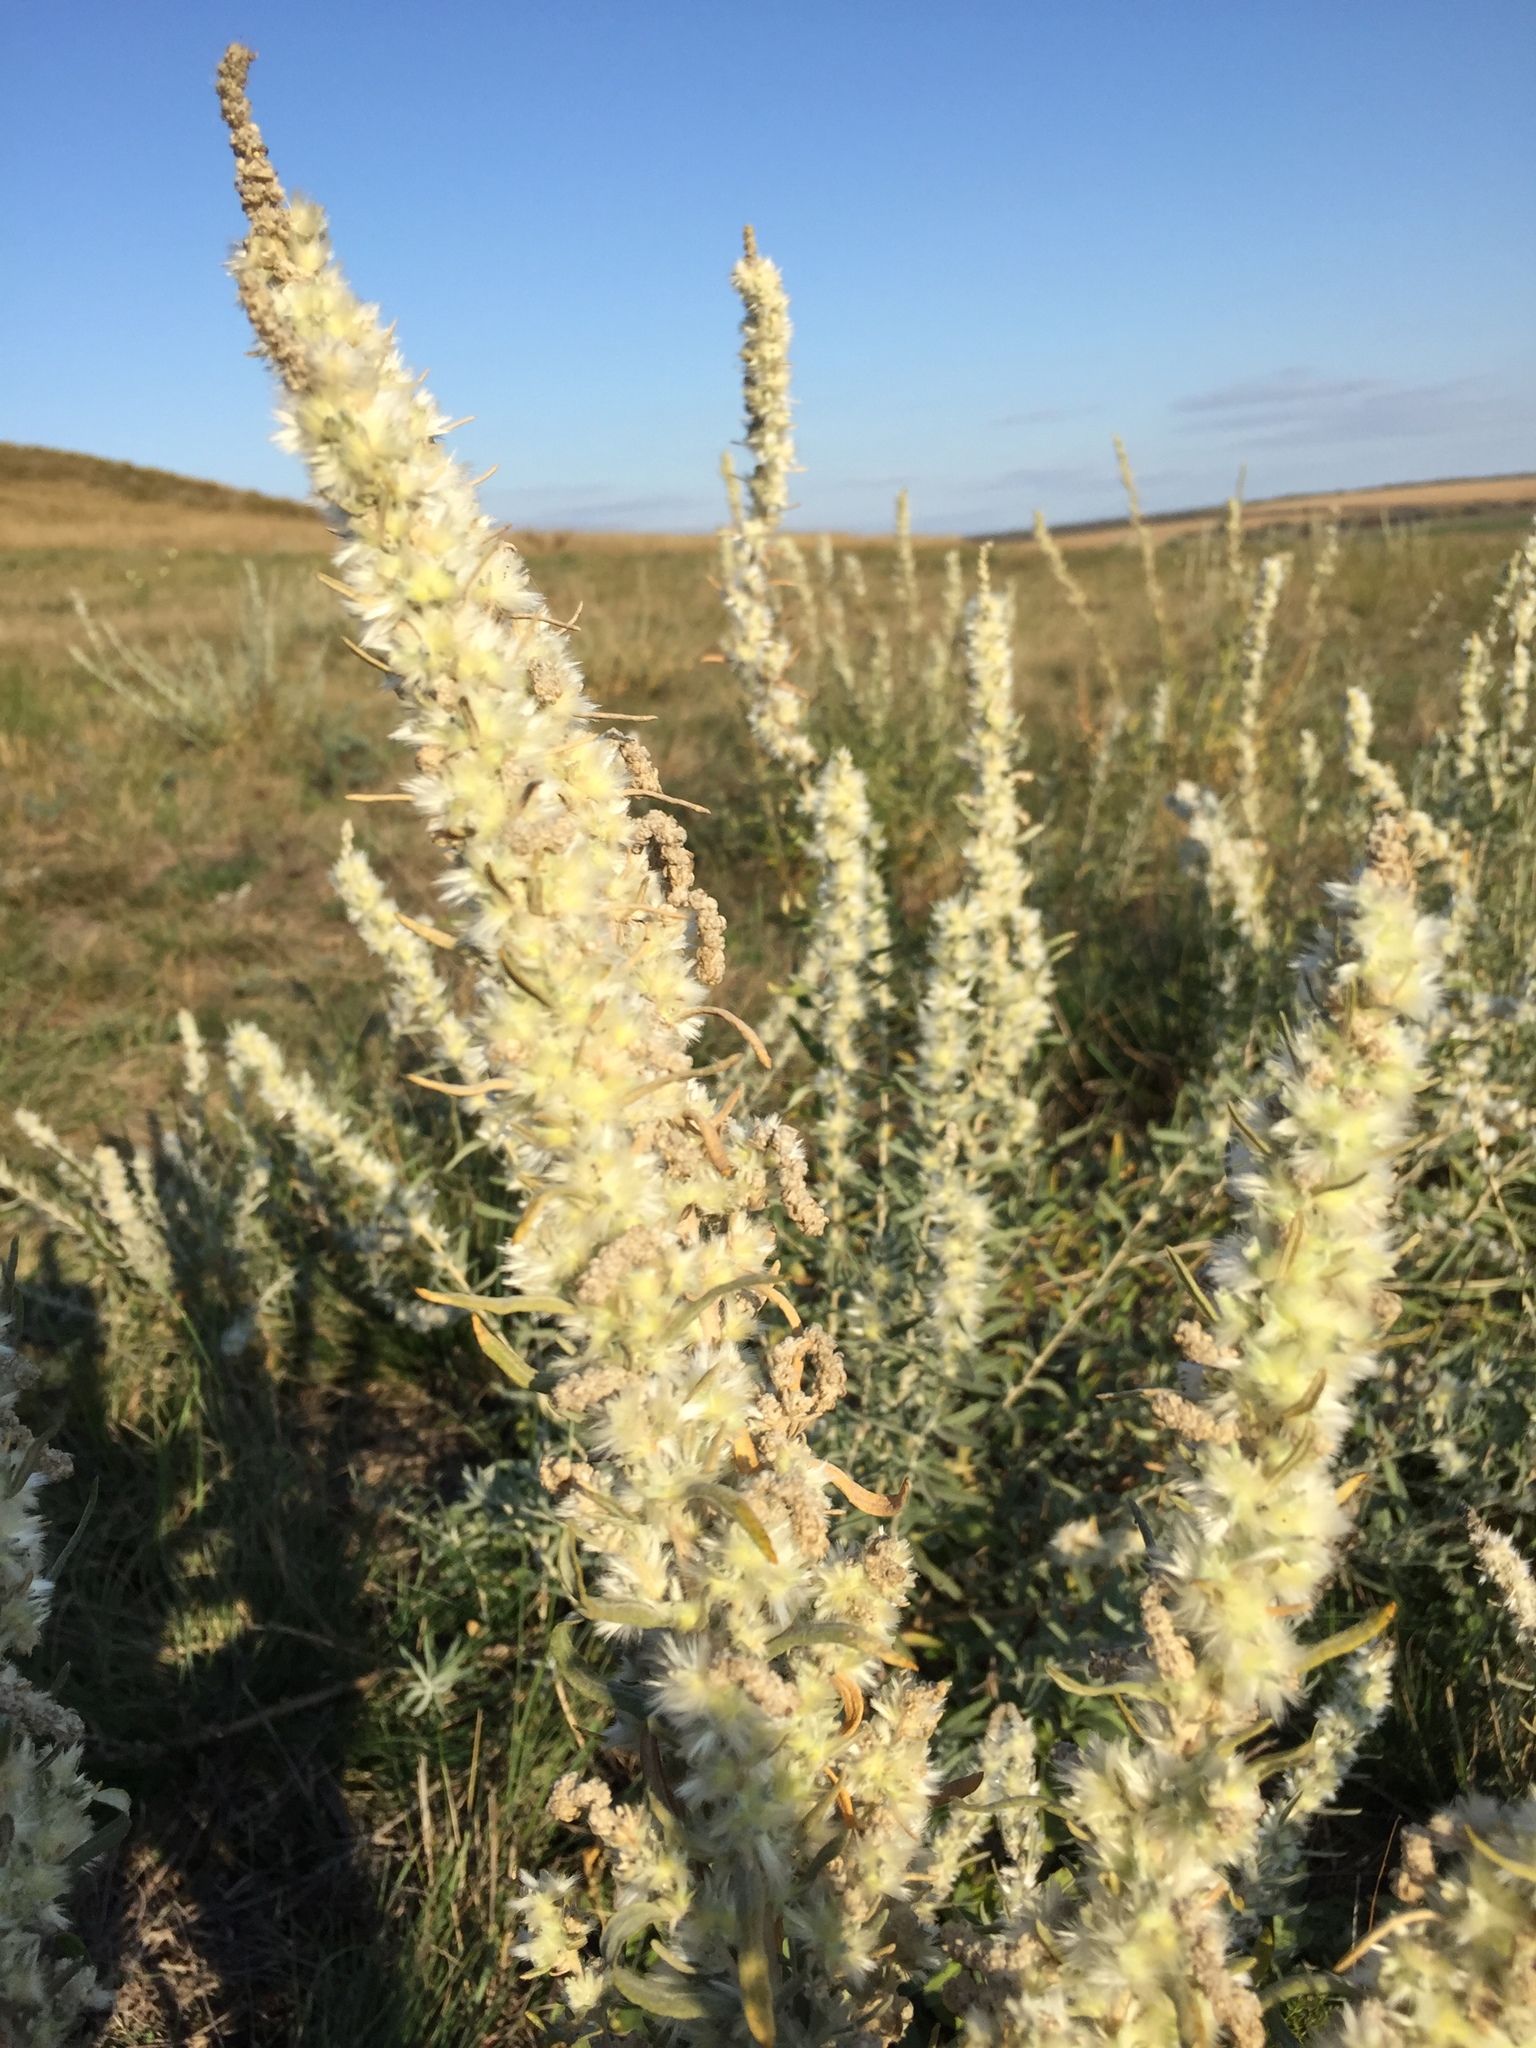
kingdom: Plantae
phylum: Tracheophyta
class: Magnoliopsida
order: Caryophyllales
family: Amaranthaceae
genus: Krascheninnikovia
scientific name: Krascheninnikovia ceratoides
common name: Pamirian winterfat
